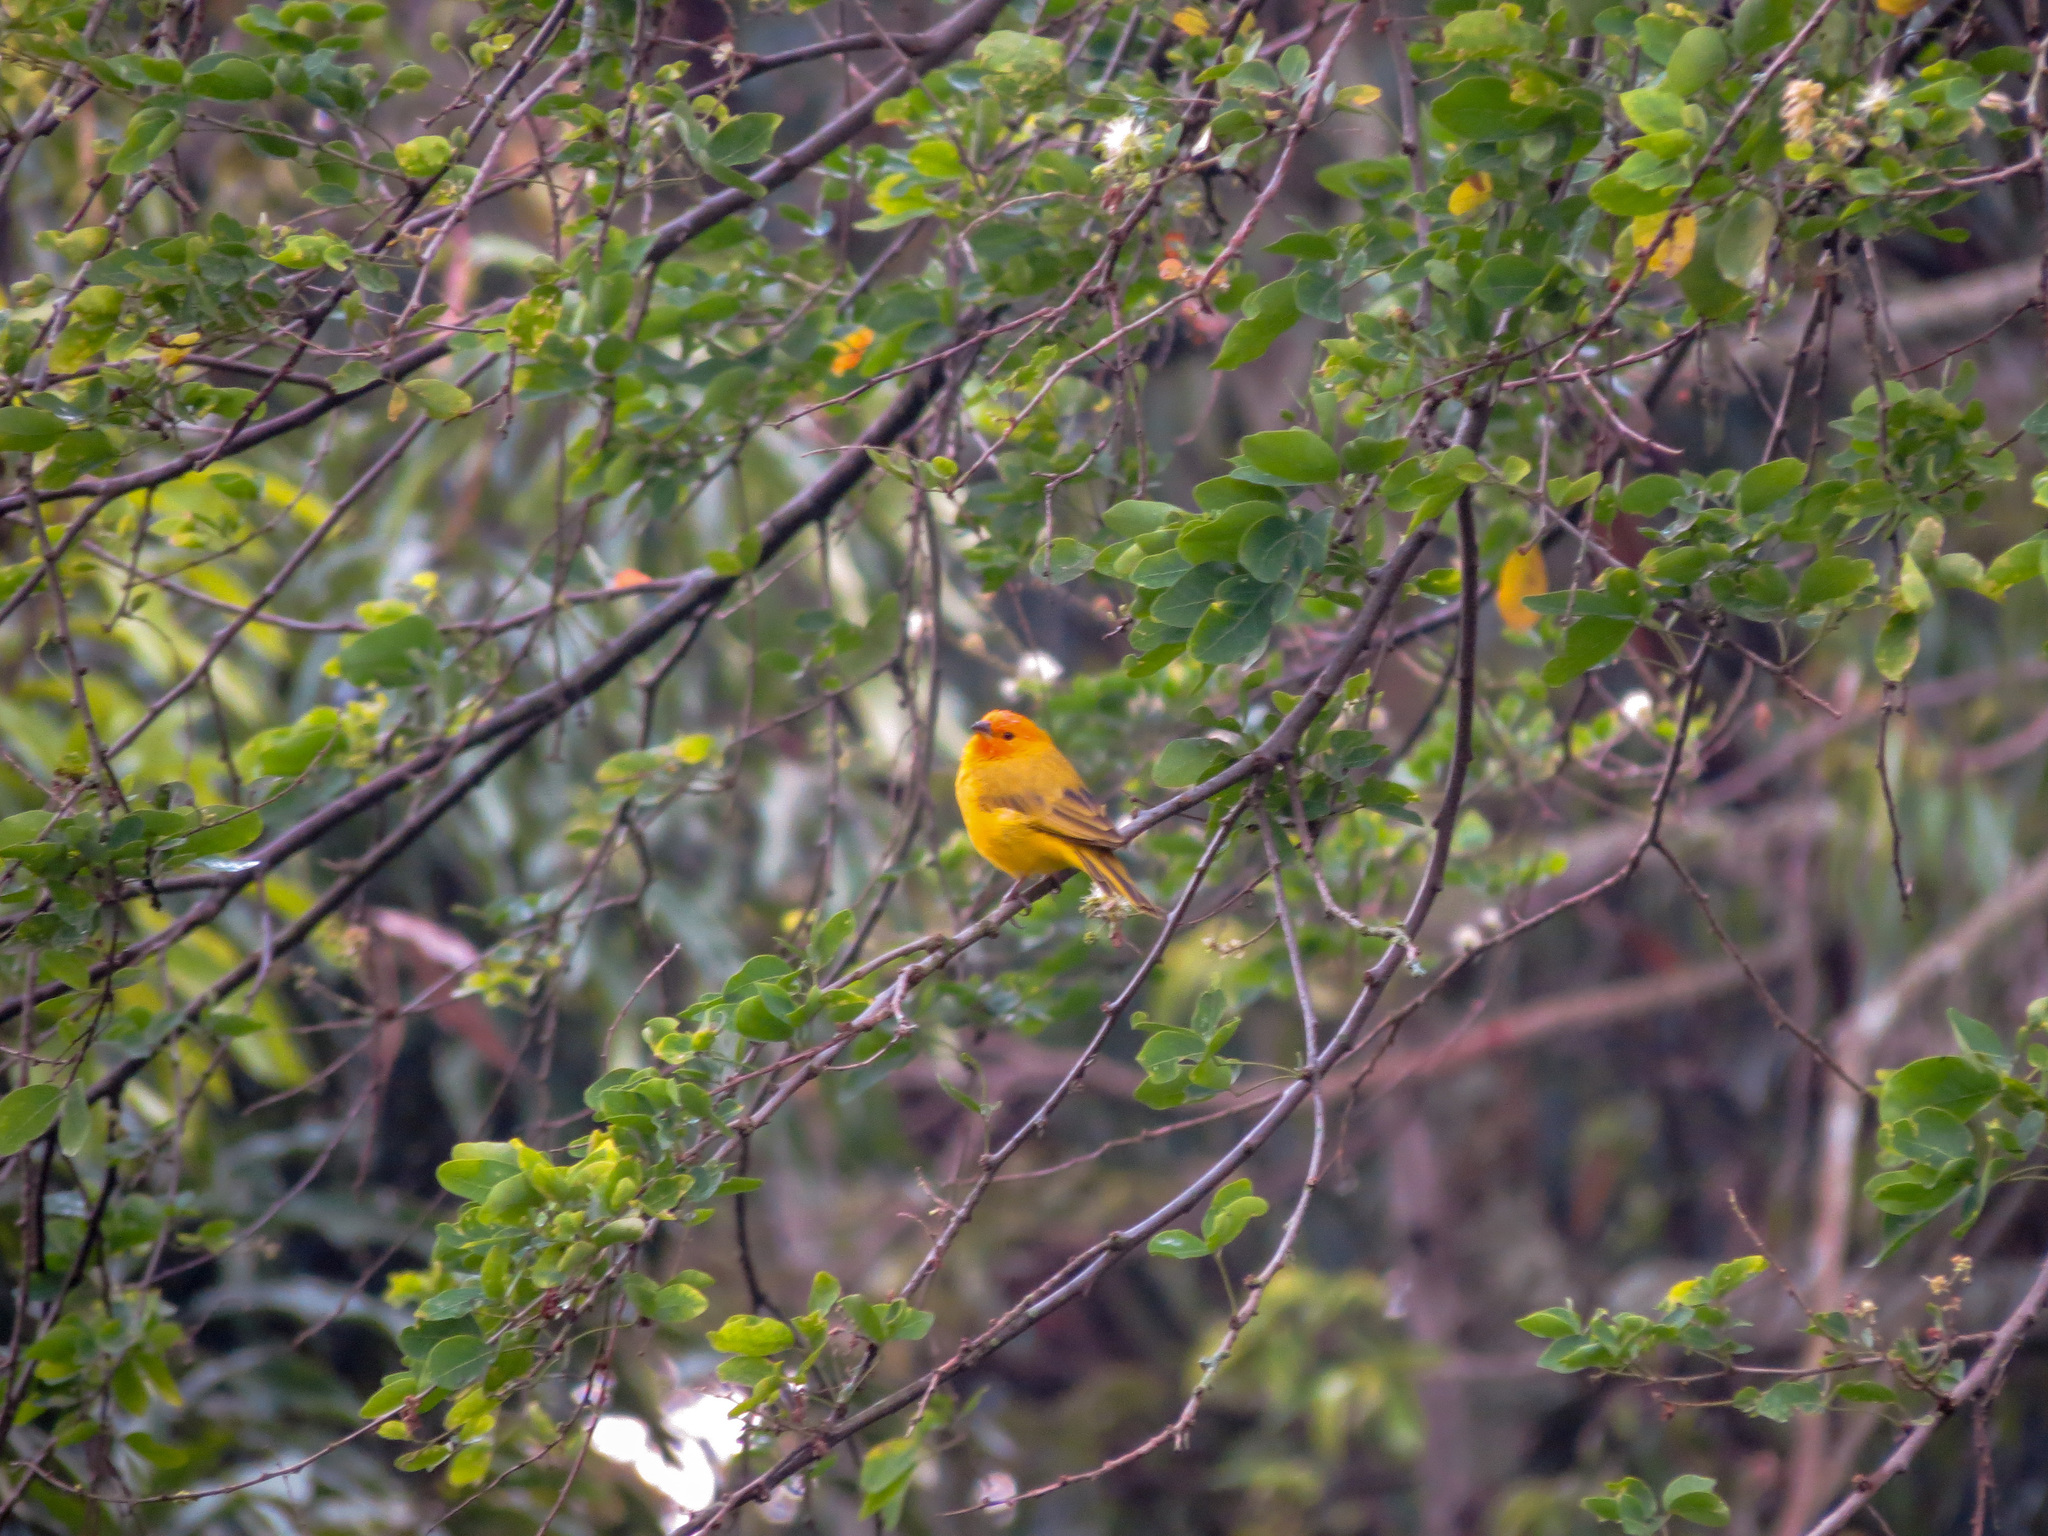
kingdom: Animalia
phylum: Chordata
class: Aves
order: Passeriformes
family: Thraupidae
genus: Sicalis
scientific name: Sicalis flaveola
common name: Saffron finch
